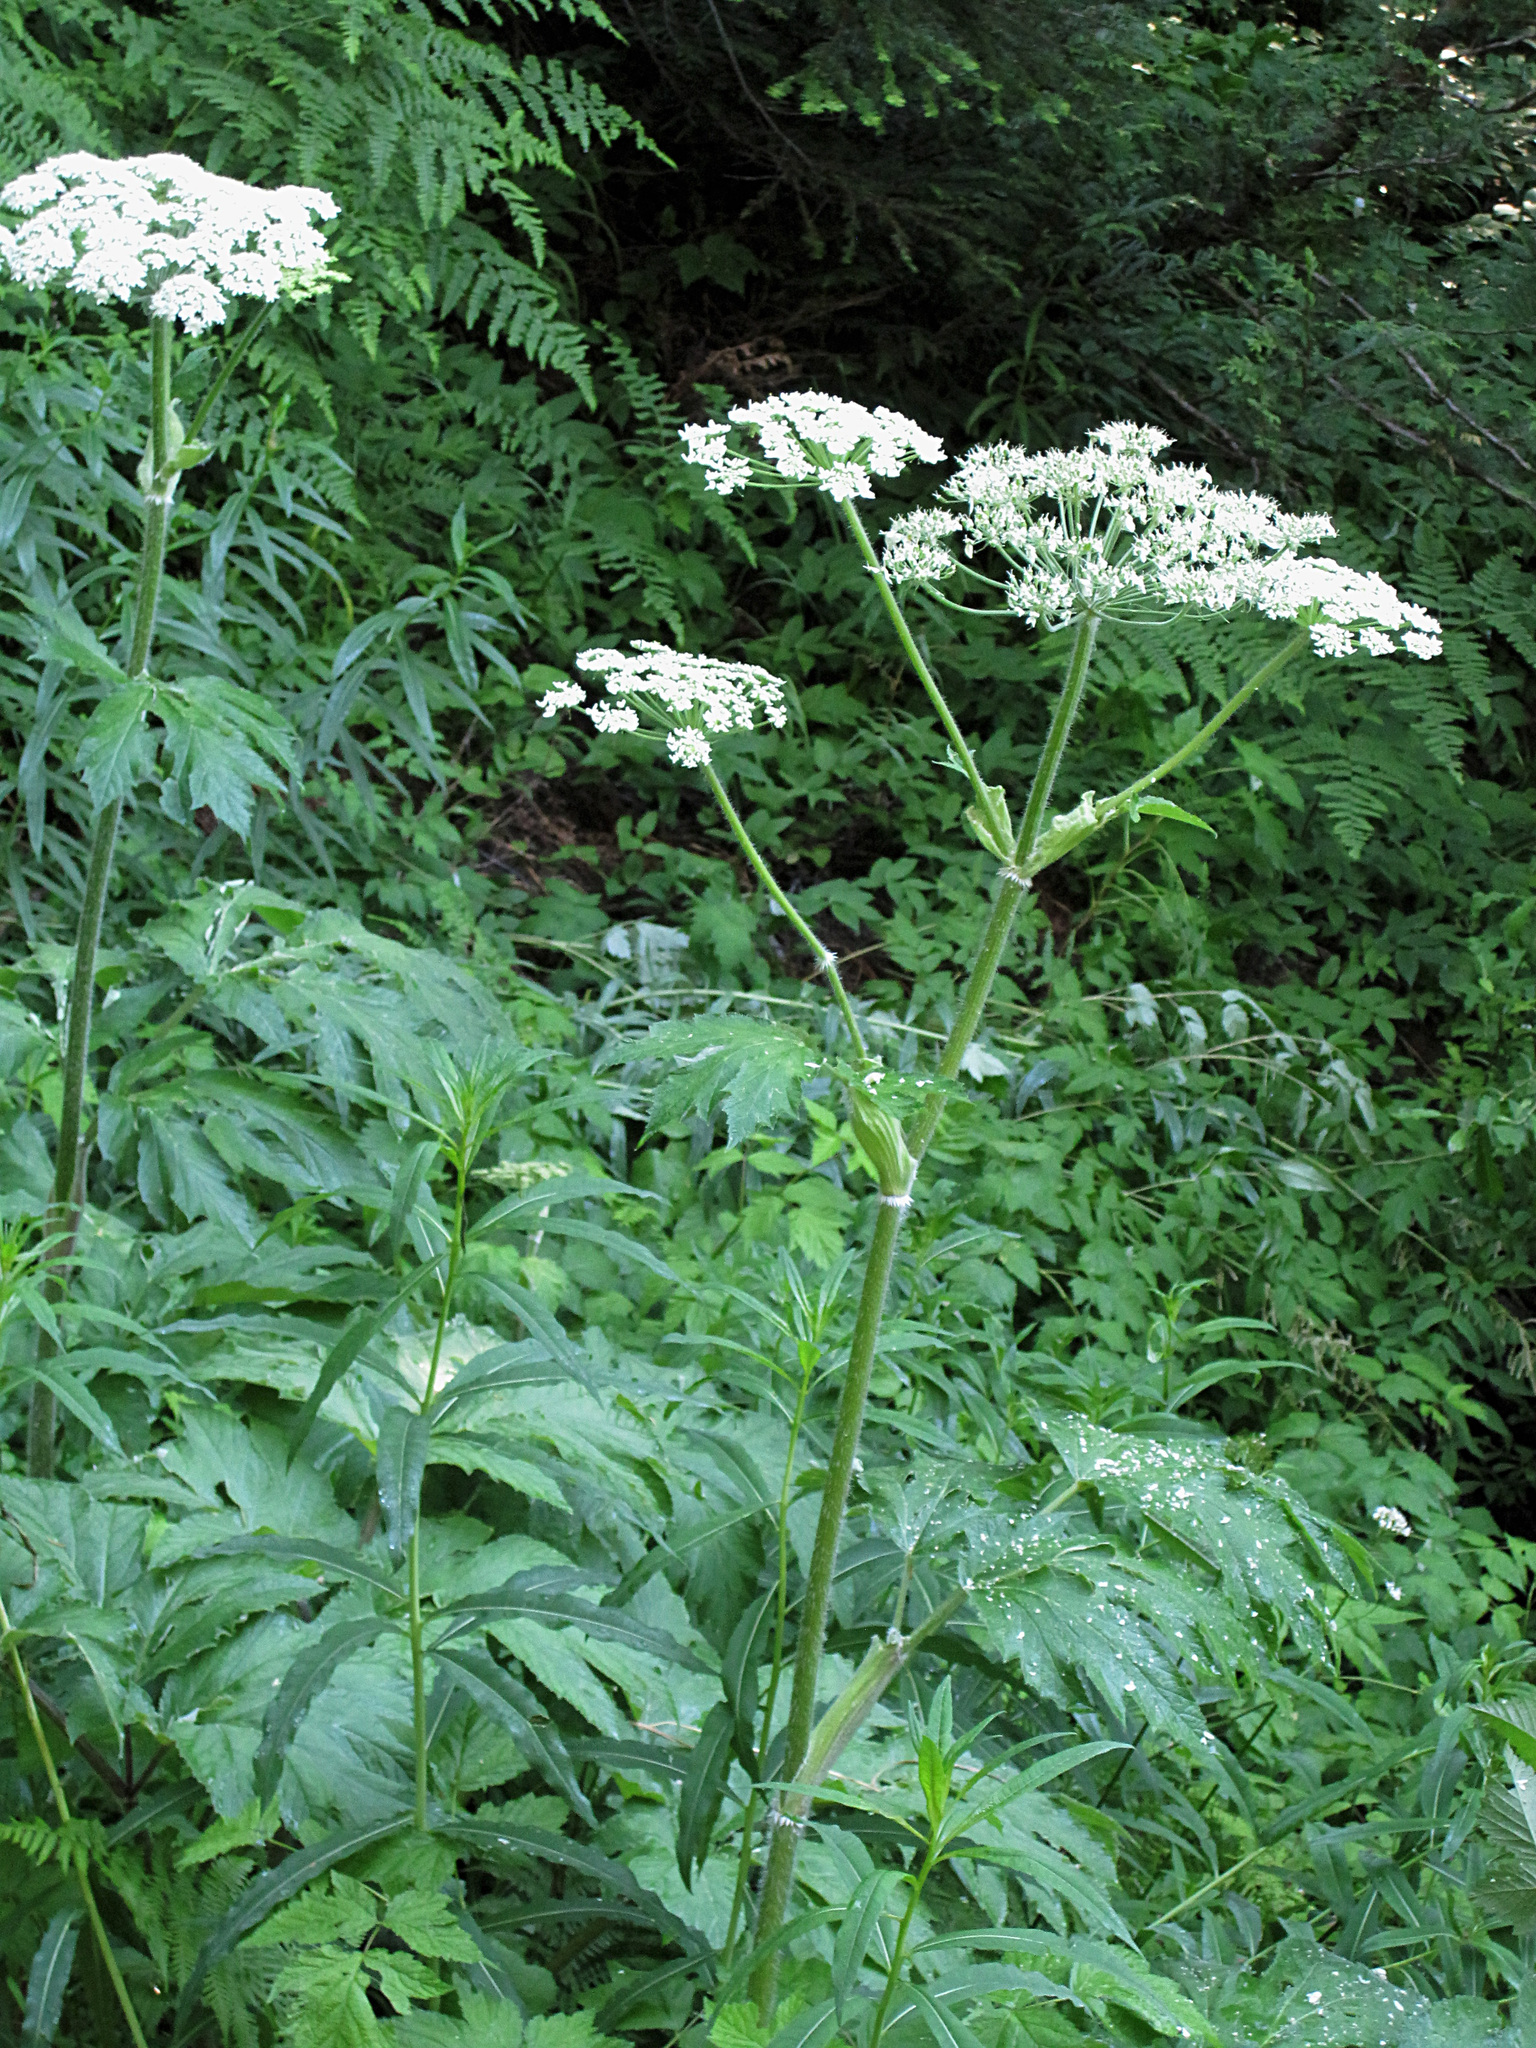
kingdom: Plantae
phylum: Tracheophyta
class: Magnoliopsida
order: Apiales
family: Apiaceae
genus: Heracleum
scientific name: Heracleum maximum
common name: American cow parsnip
